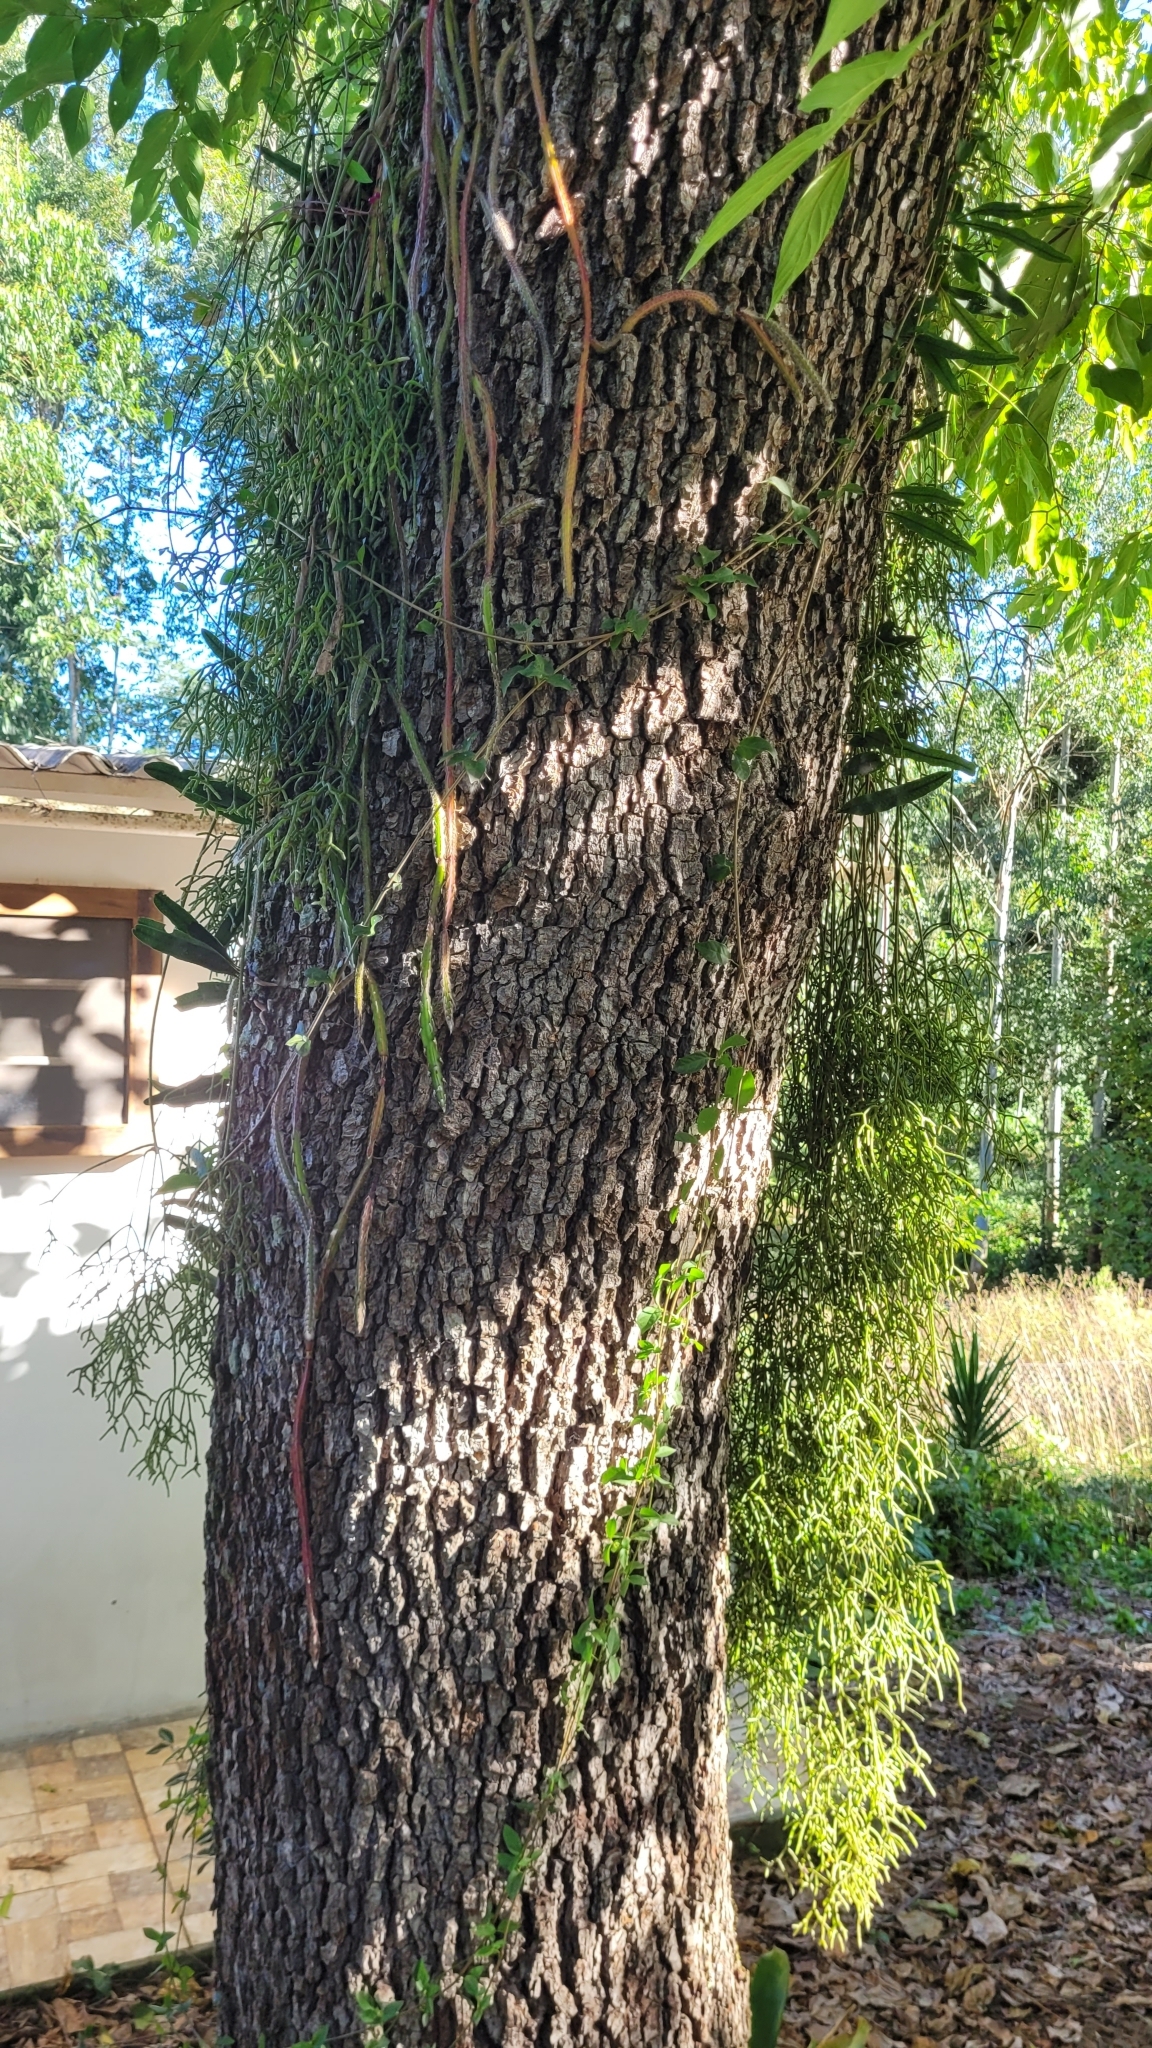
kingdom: Plantae
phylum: Tracheophyta
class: Magnoliopsida
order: Sapindales
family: Meliaceae
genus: Cabralea
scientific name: Cabralea canjerana
